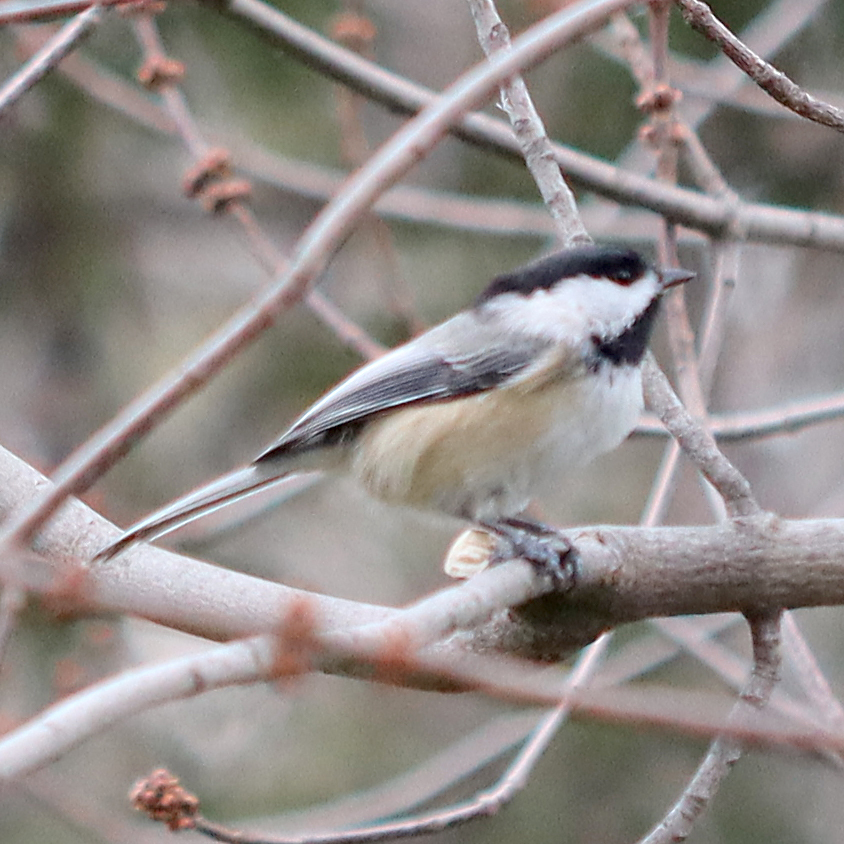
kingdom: Animalia
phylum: Chordata
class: Aves
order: Passeriformes
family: Paridae
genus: Poecile
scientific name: Poecile atricapillus
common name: Black-capped chickadee
